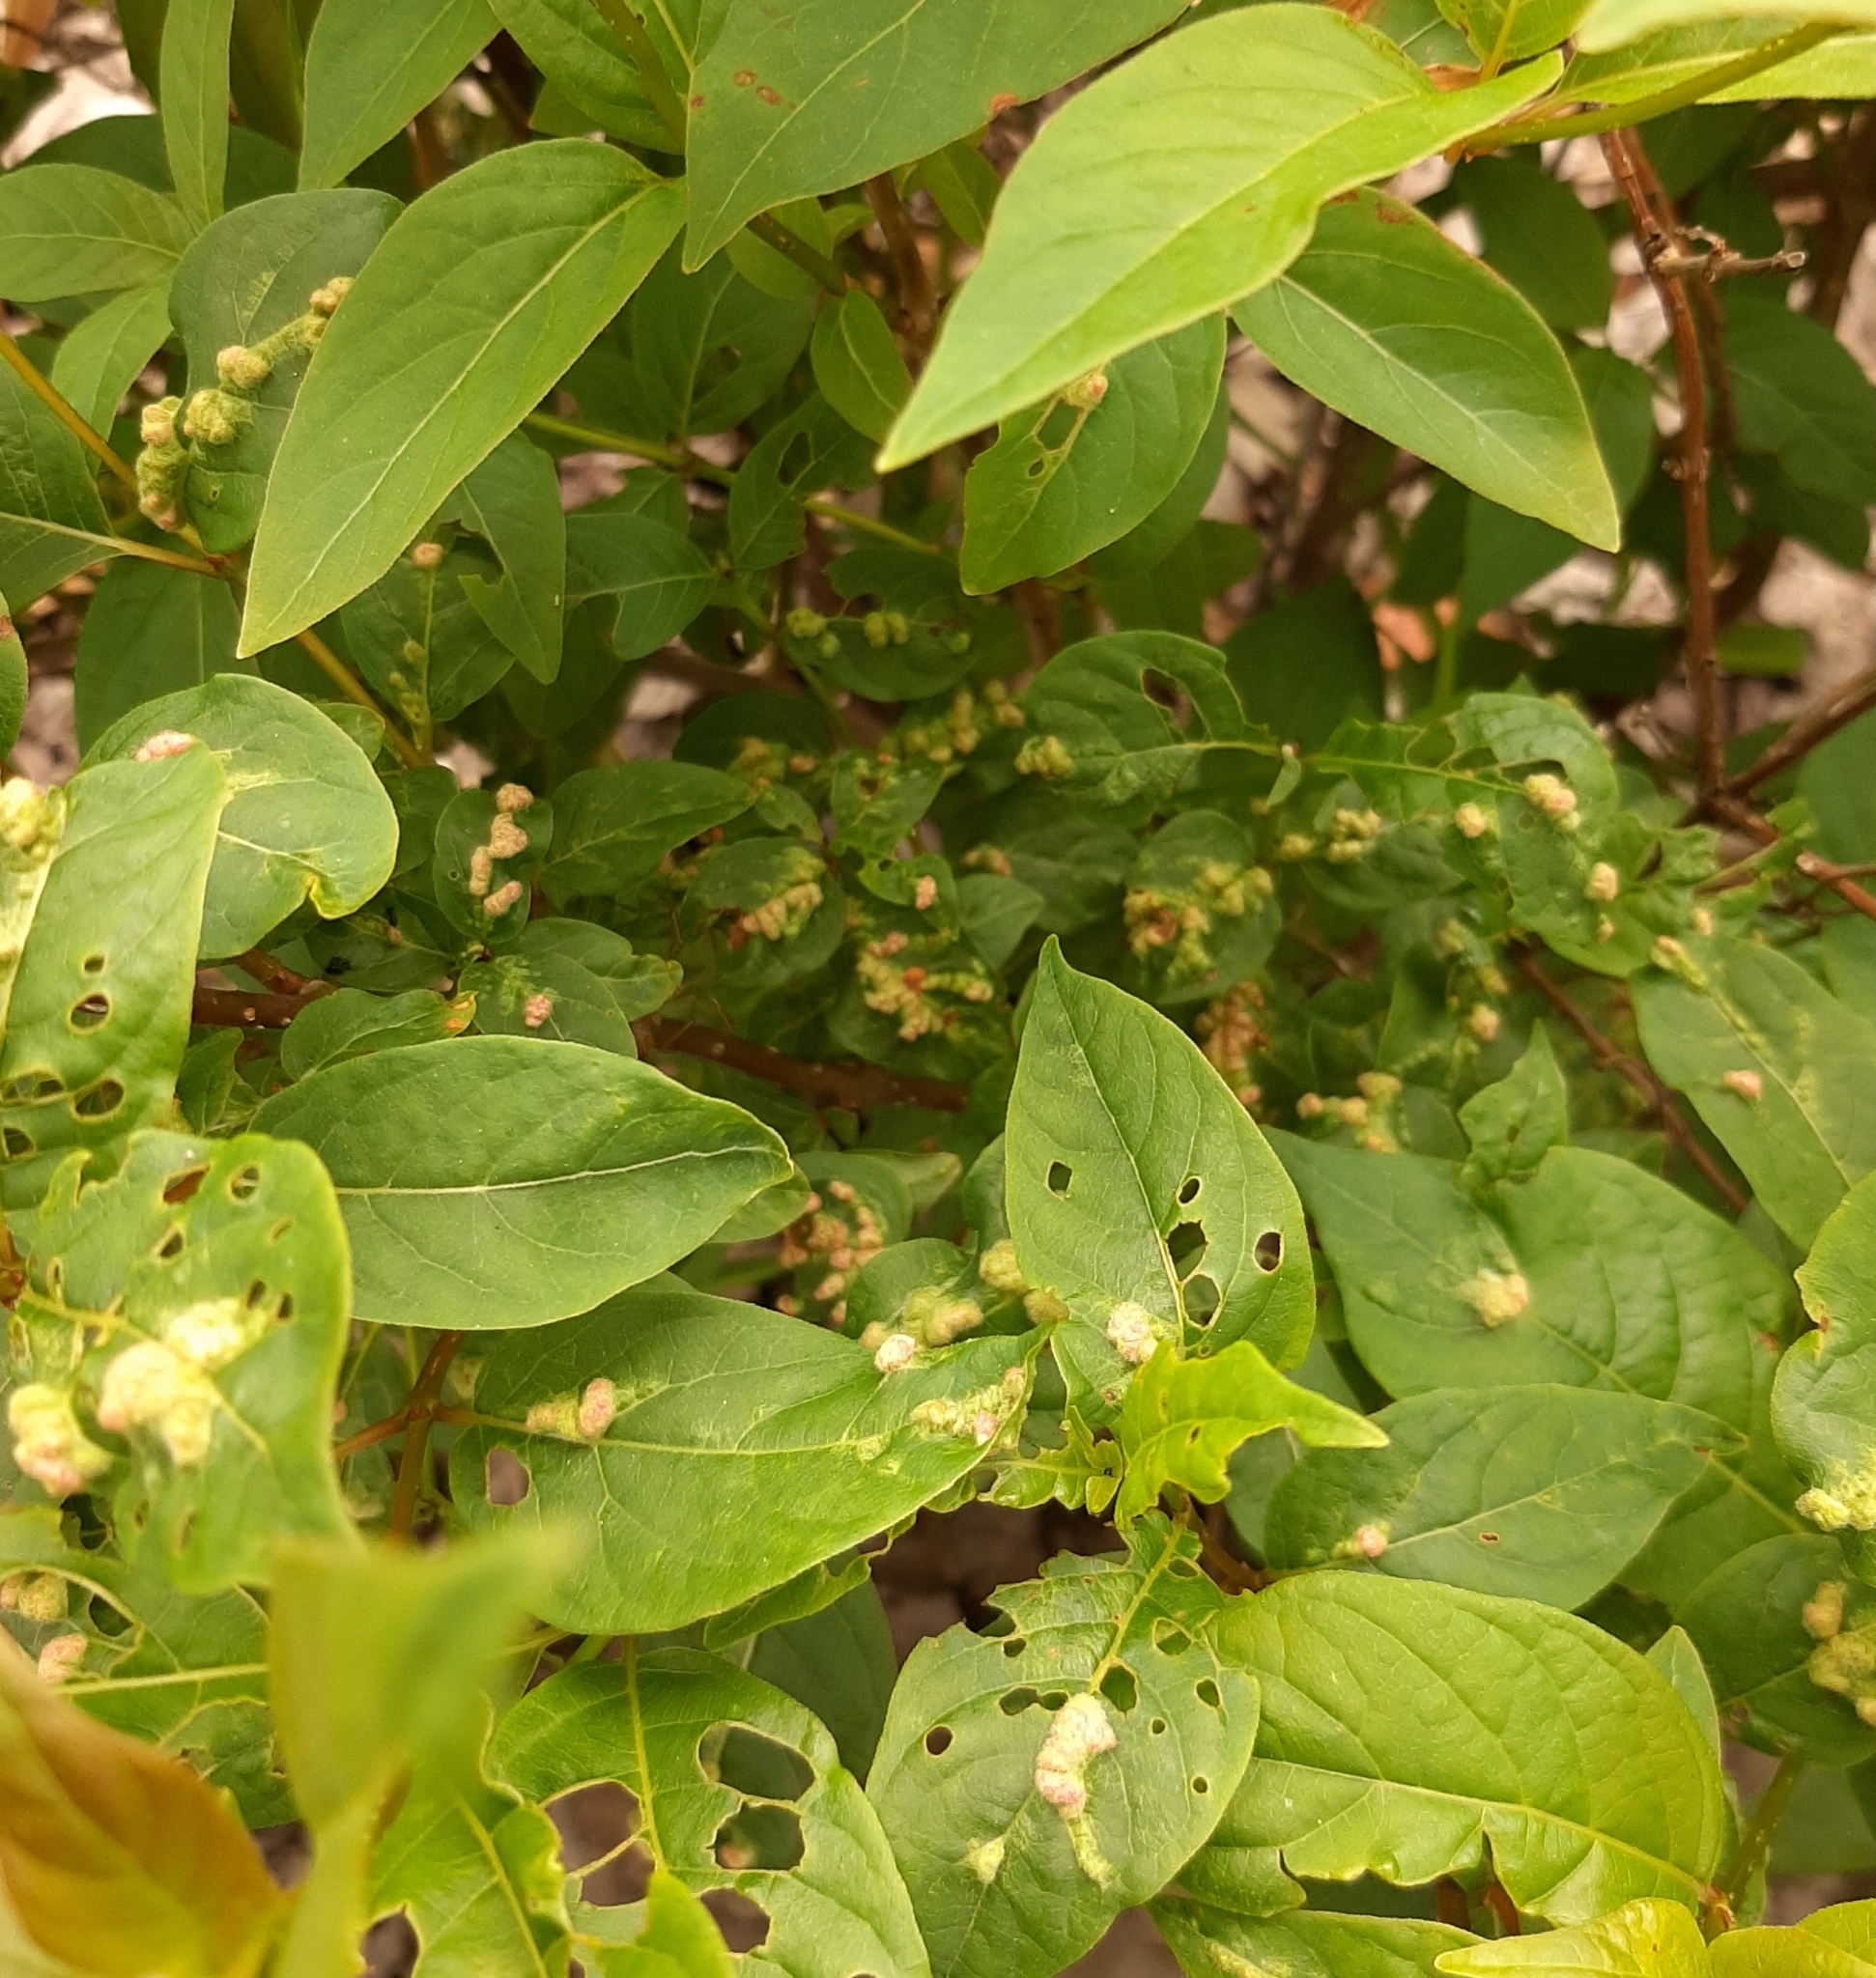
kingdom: Animalia
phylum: Arthropoda
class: Arachnida
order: Trombidiformes
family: Eriophyidae
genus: Aceria
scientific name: Aceria
